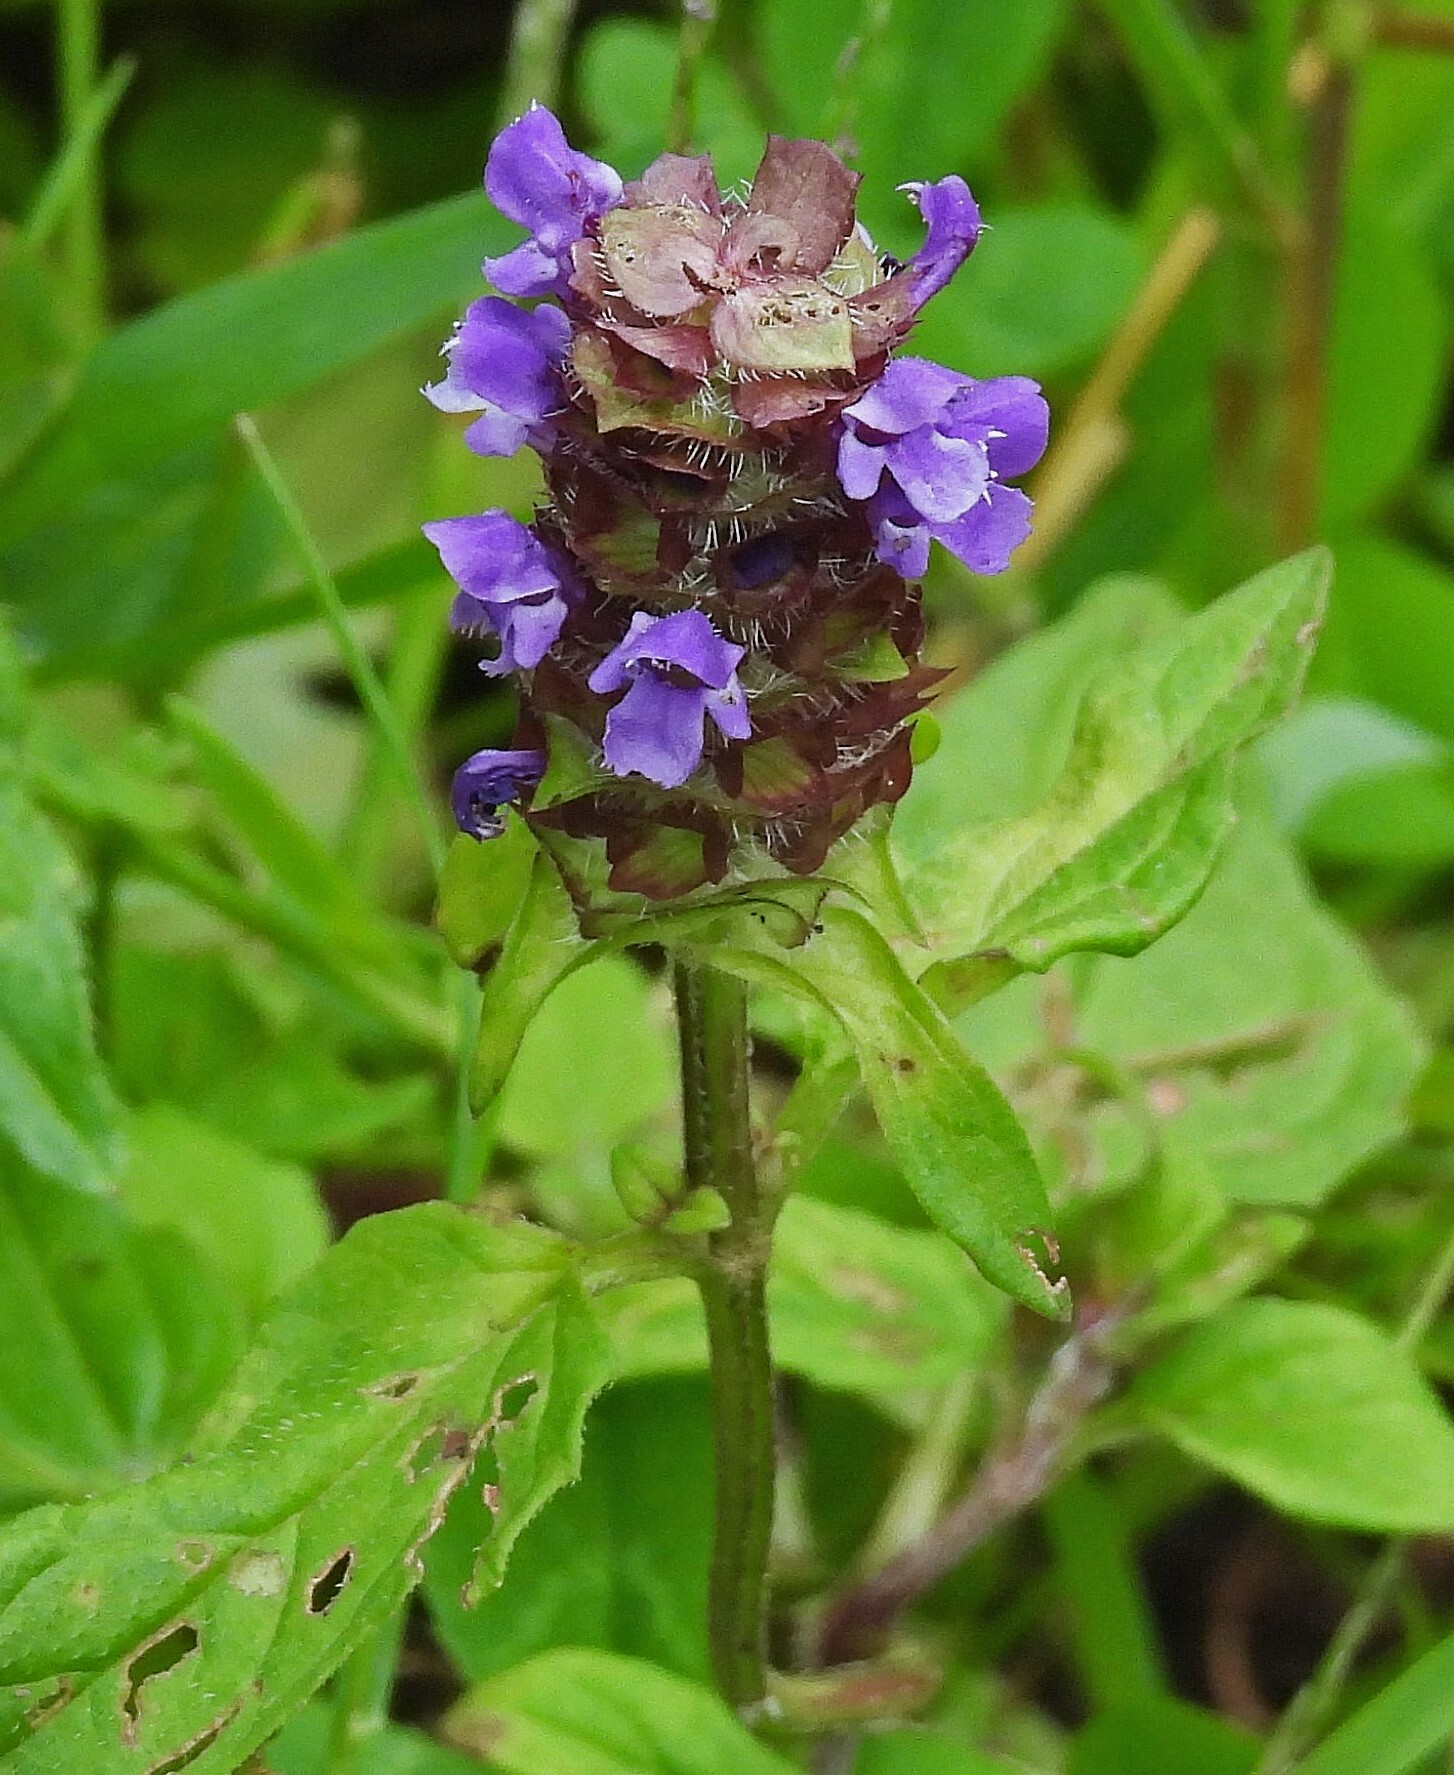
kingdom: Plantae
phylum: Tracheophyta
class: Magnoliopsida
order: Lamiales
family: Lamiaceae
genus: Prunella
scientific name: Prunella vulgaris
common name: Heal-all
